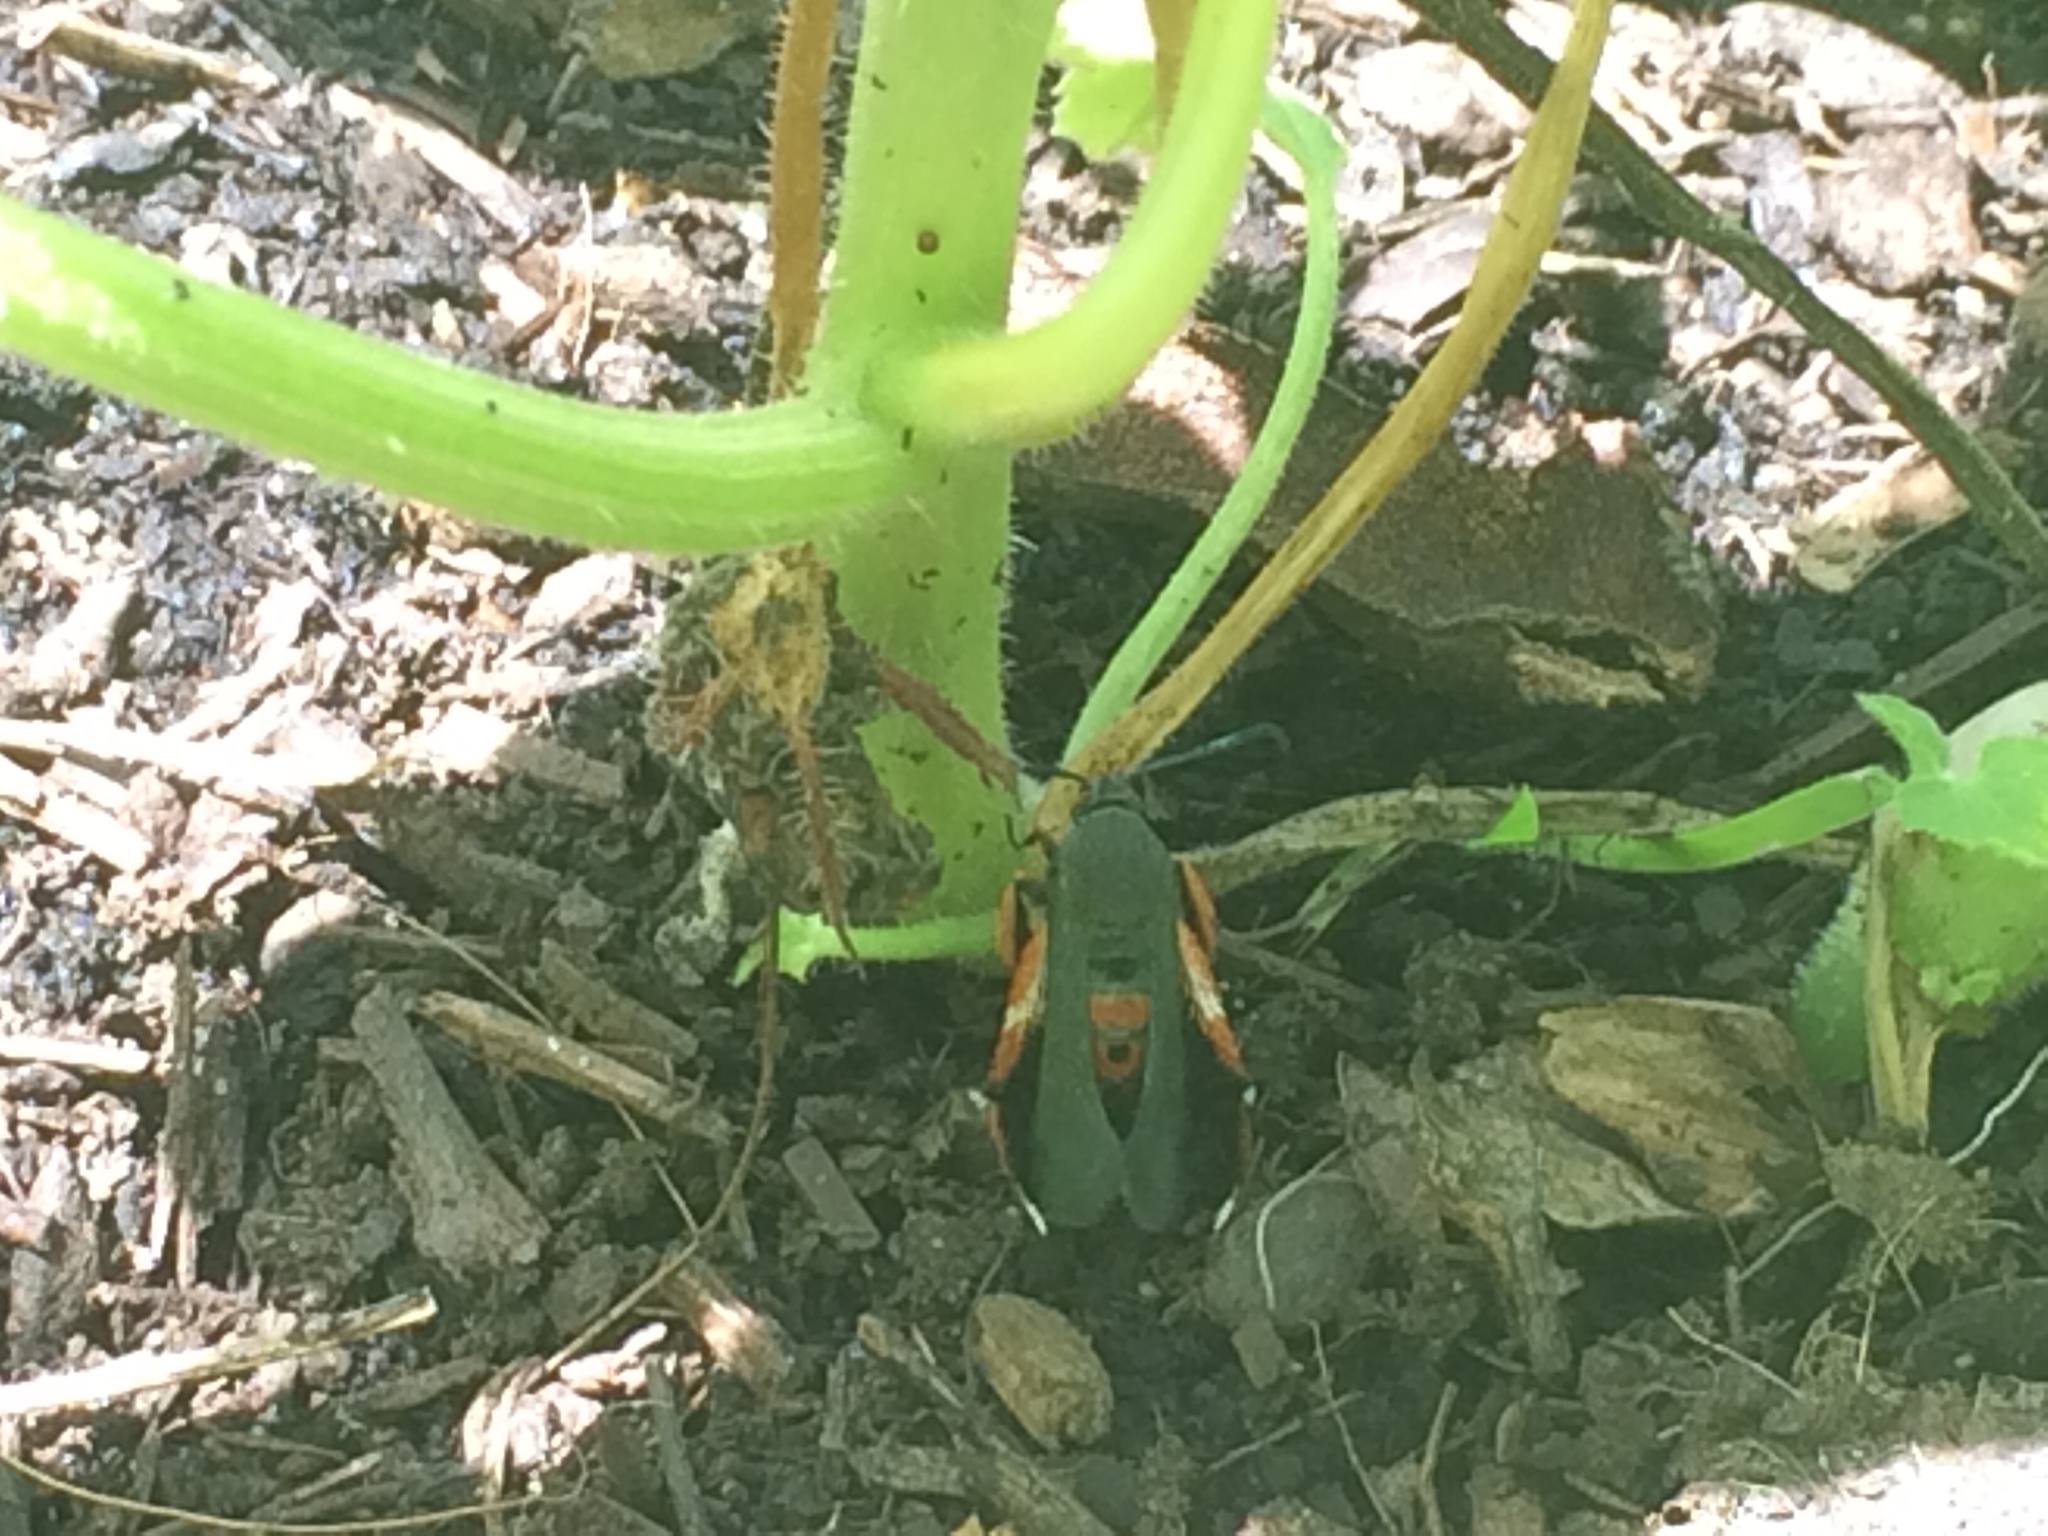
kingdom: Animalia
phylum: Arthropoda
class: Insecta
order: Lepidoptera
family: Sesiidae
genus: Eichlinia
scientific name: Eichlinia cucurbitae
